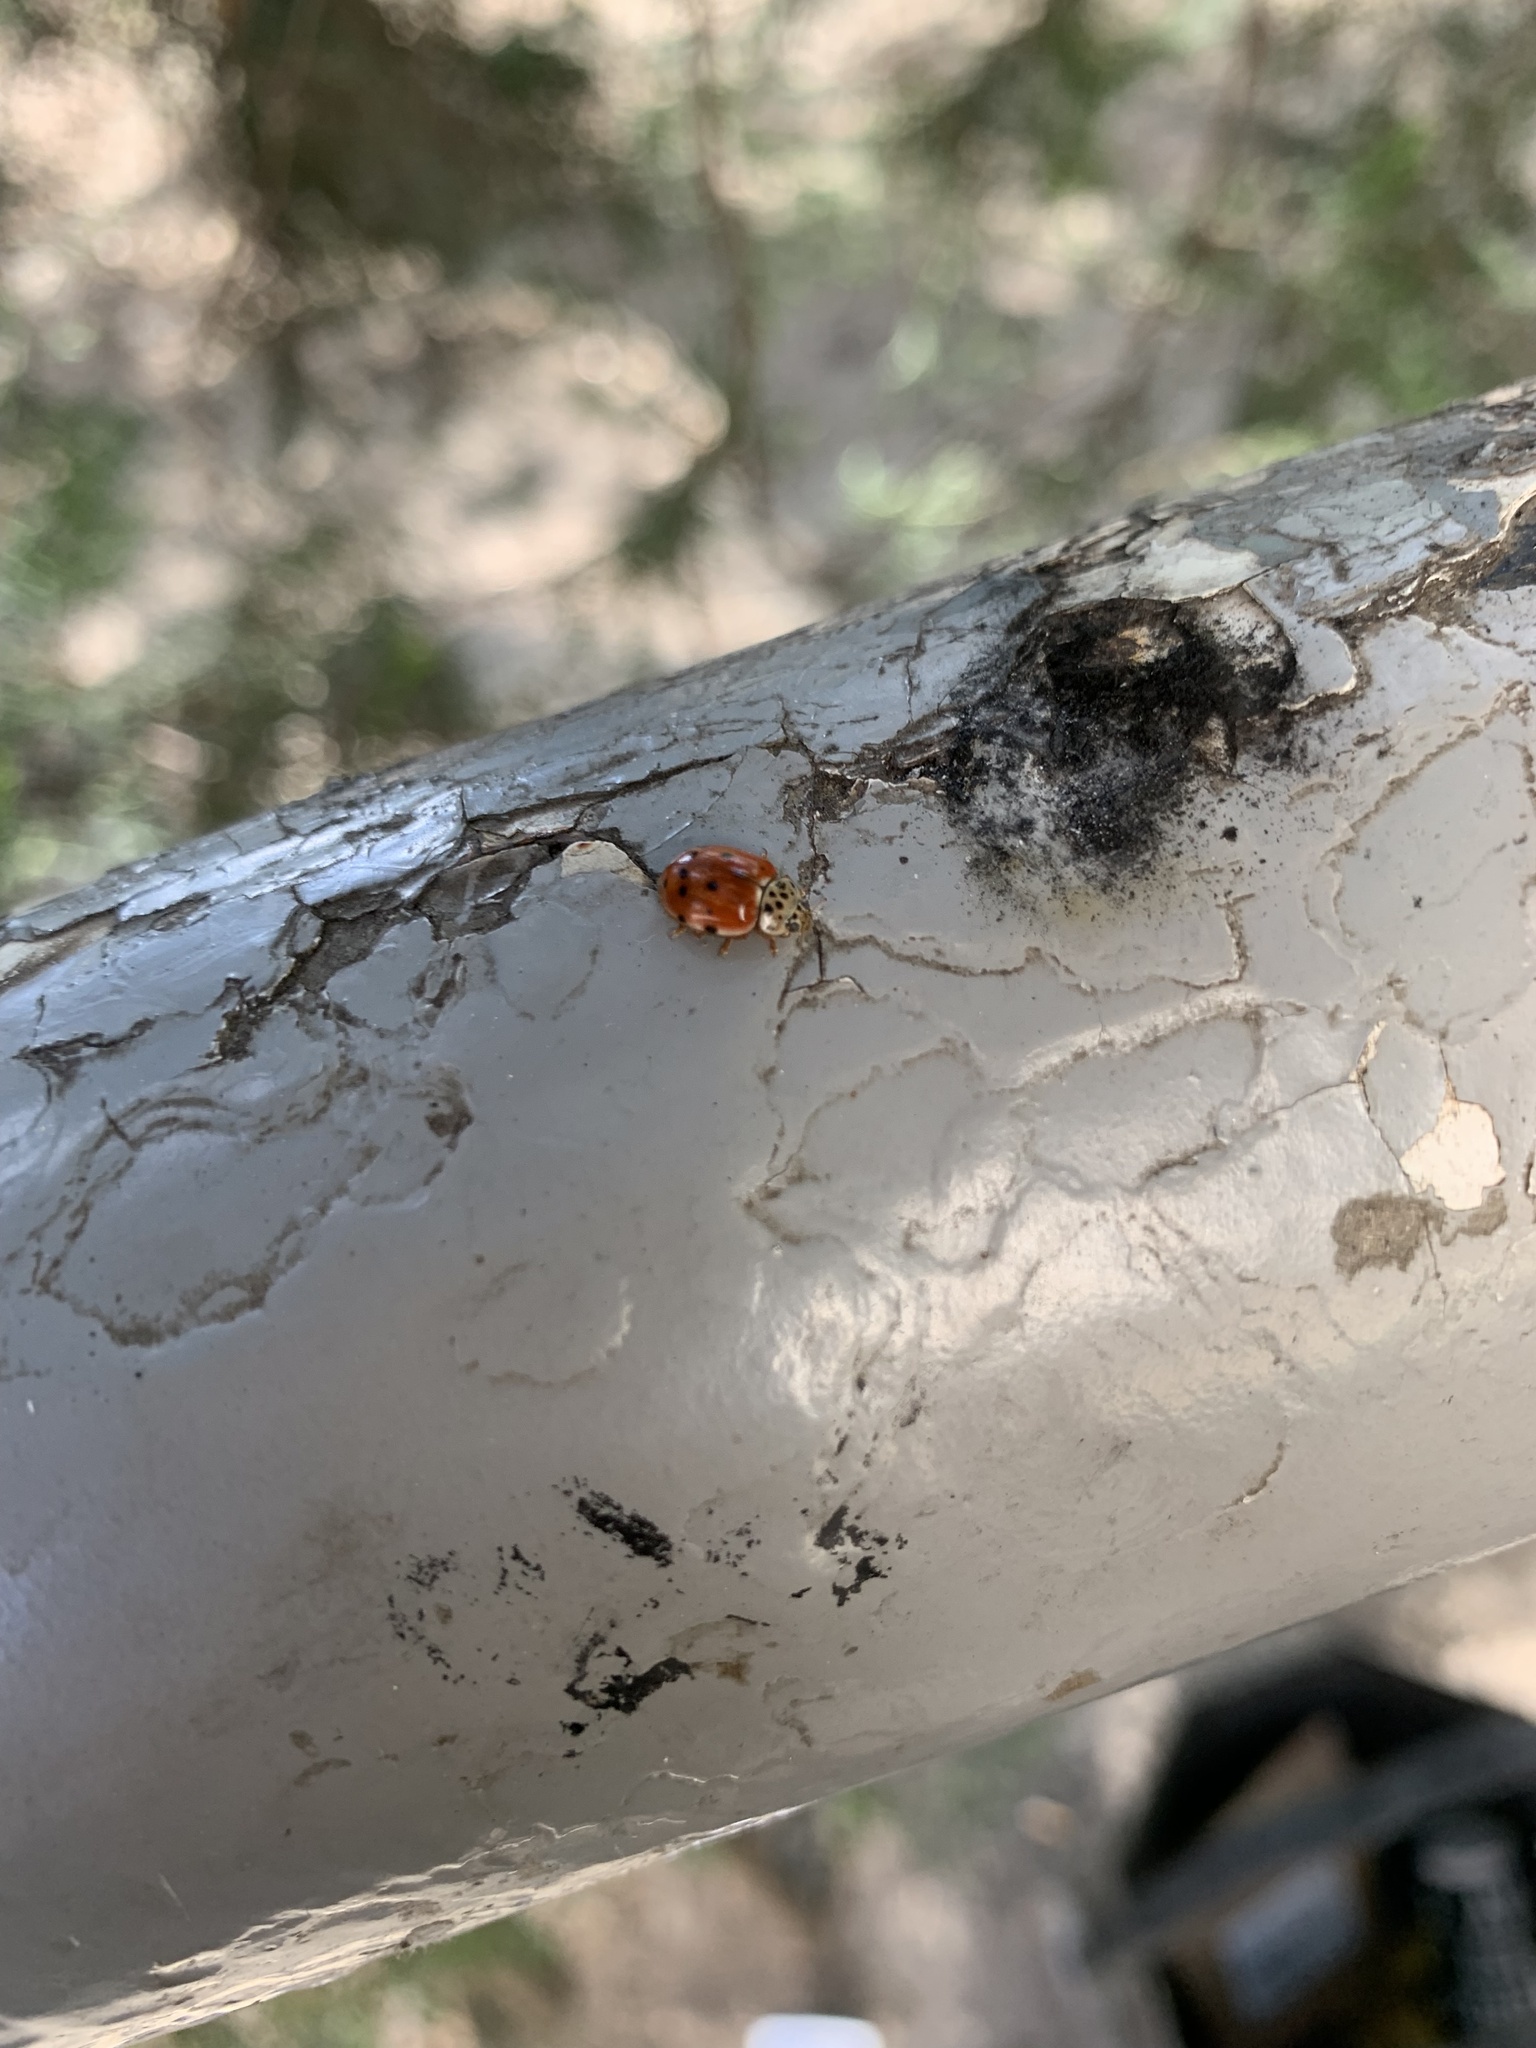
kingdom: Animalia
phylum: Arthropoda
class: Insecta
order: Coleoptera
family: Coccinellidae
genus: Harmonia
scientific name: Harmonia quadripunctata
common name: Cream-streaked ladybird
